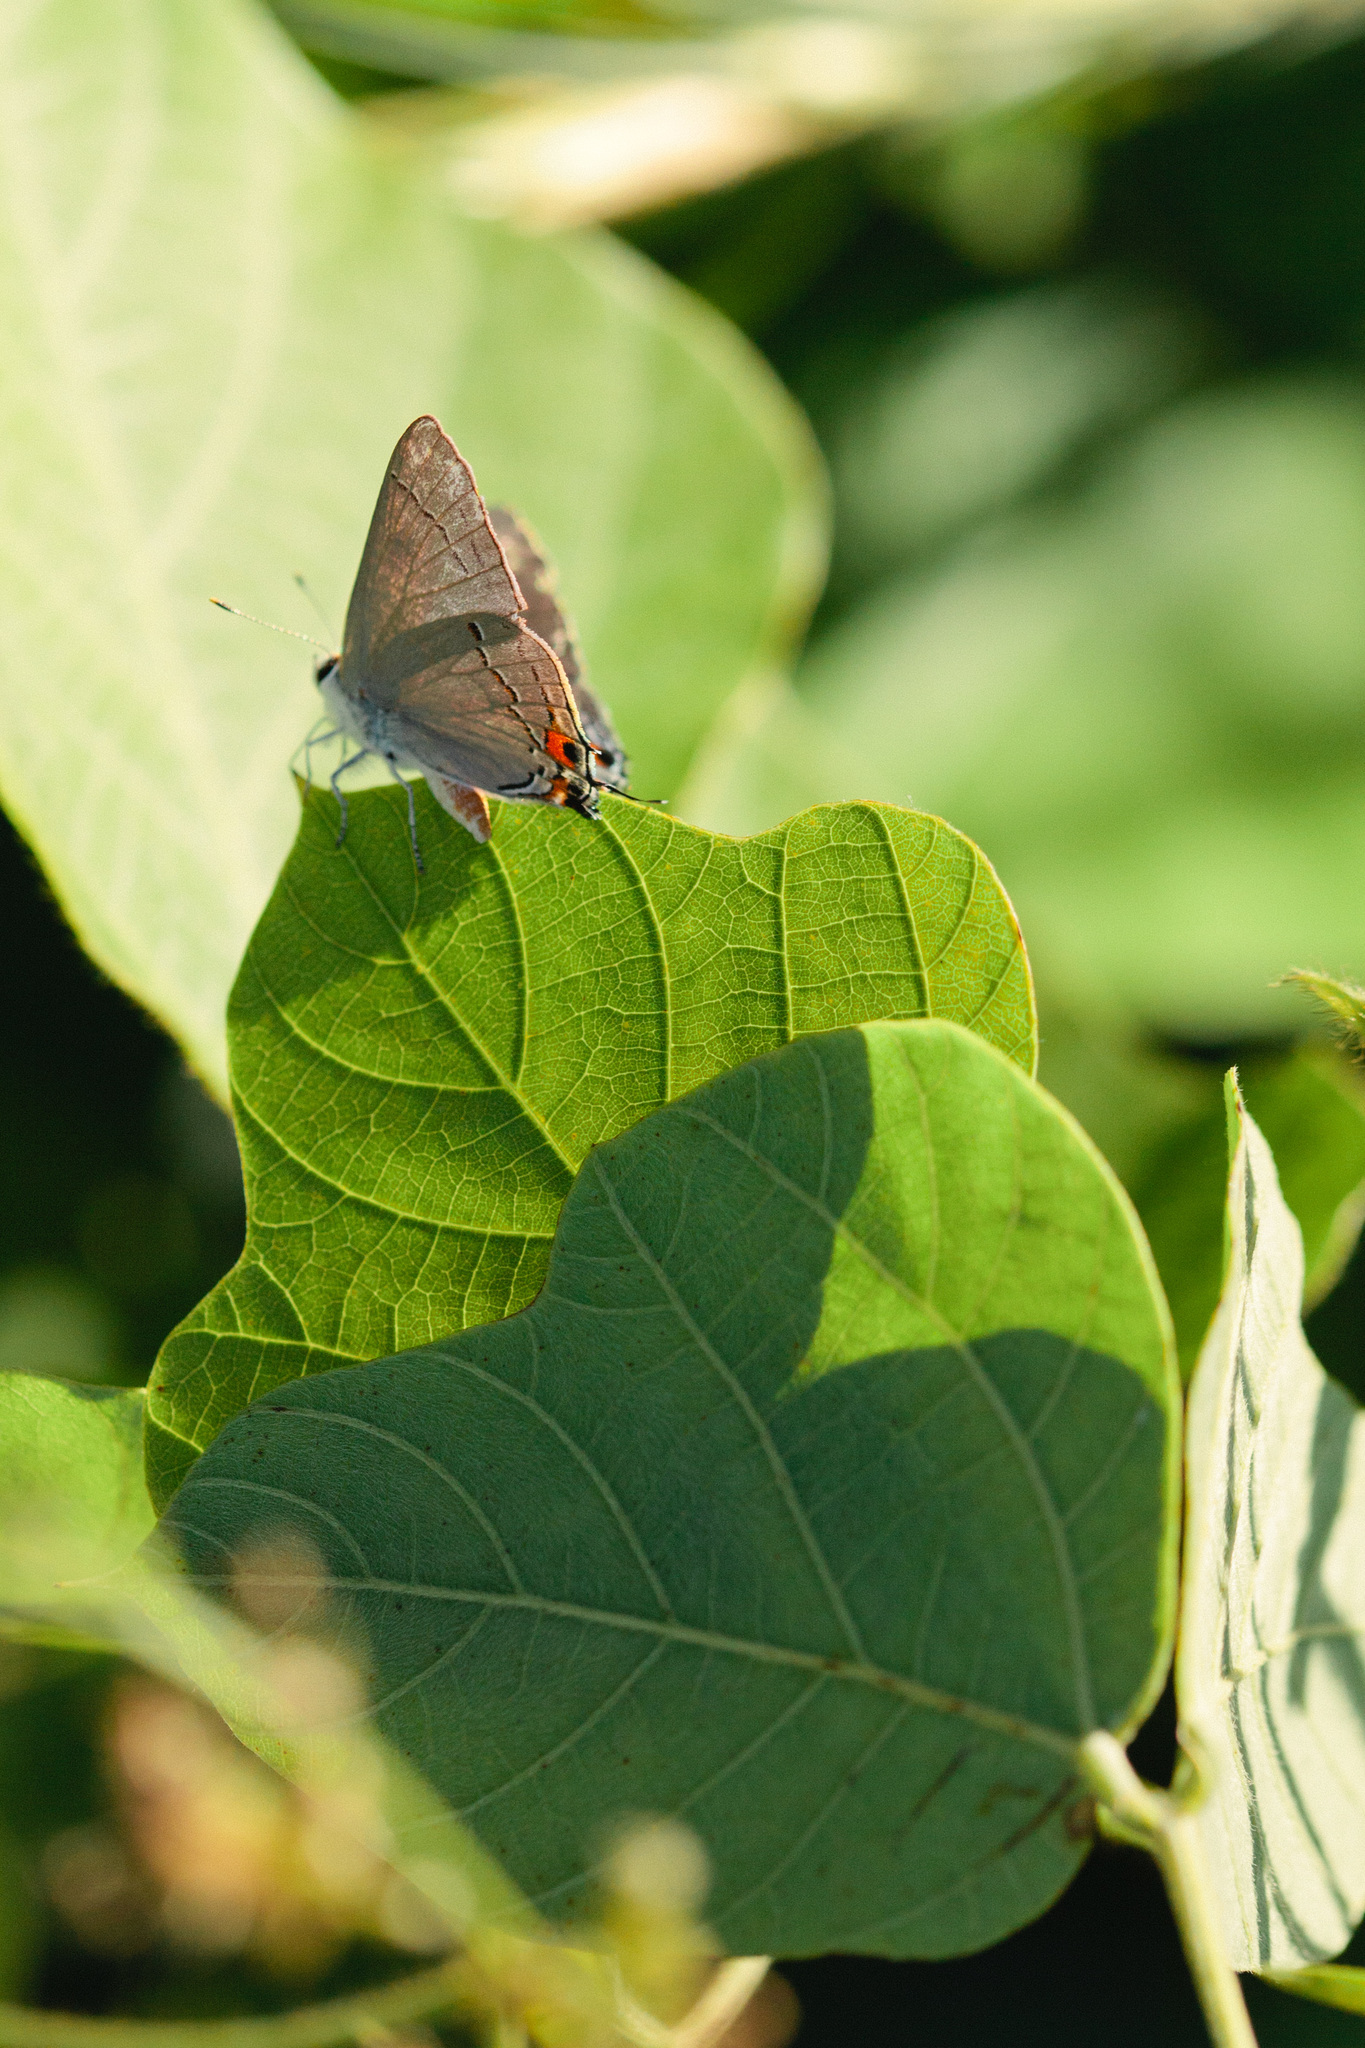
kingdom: Animalia
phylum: Arthropoda
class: Insecta
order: Lepidoptera
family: Lycaenidae
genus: Strymon
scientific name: Strymon melinus
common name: Gray hairstreak
